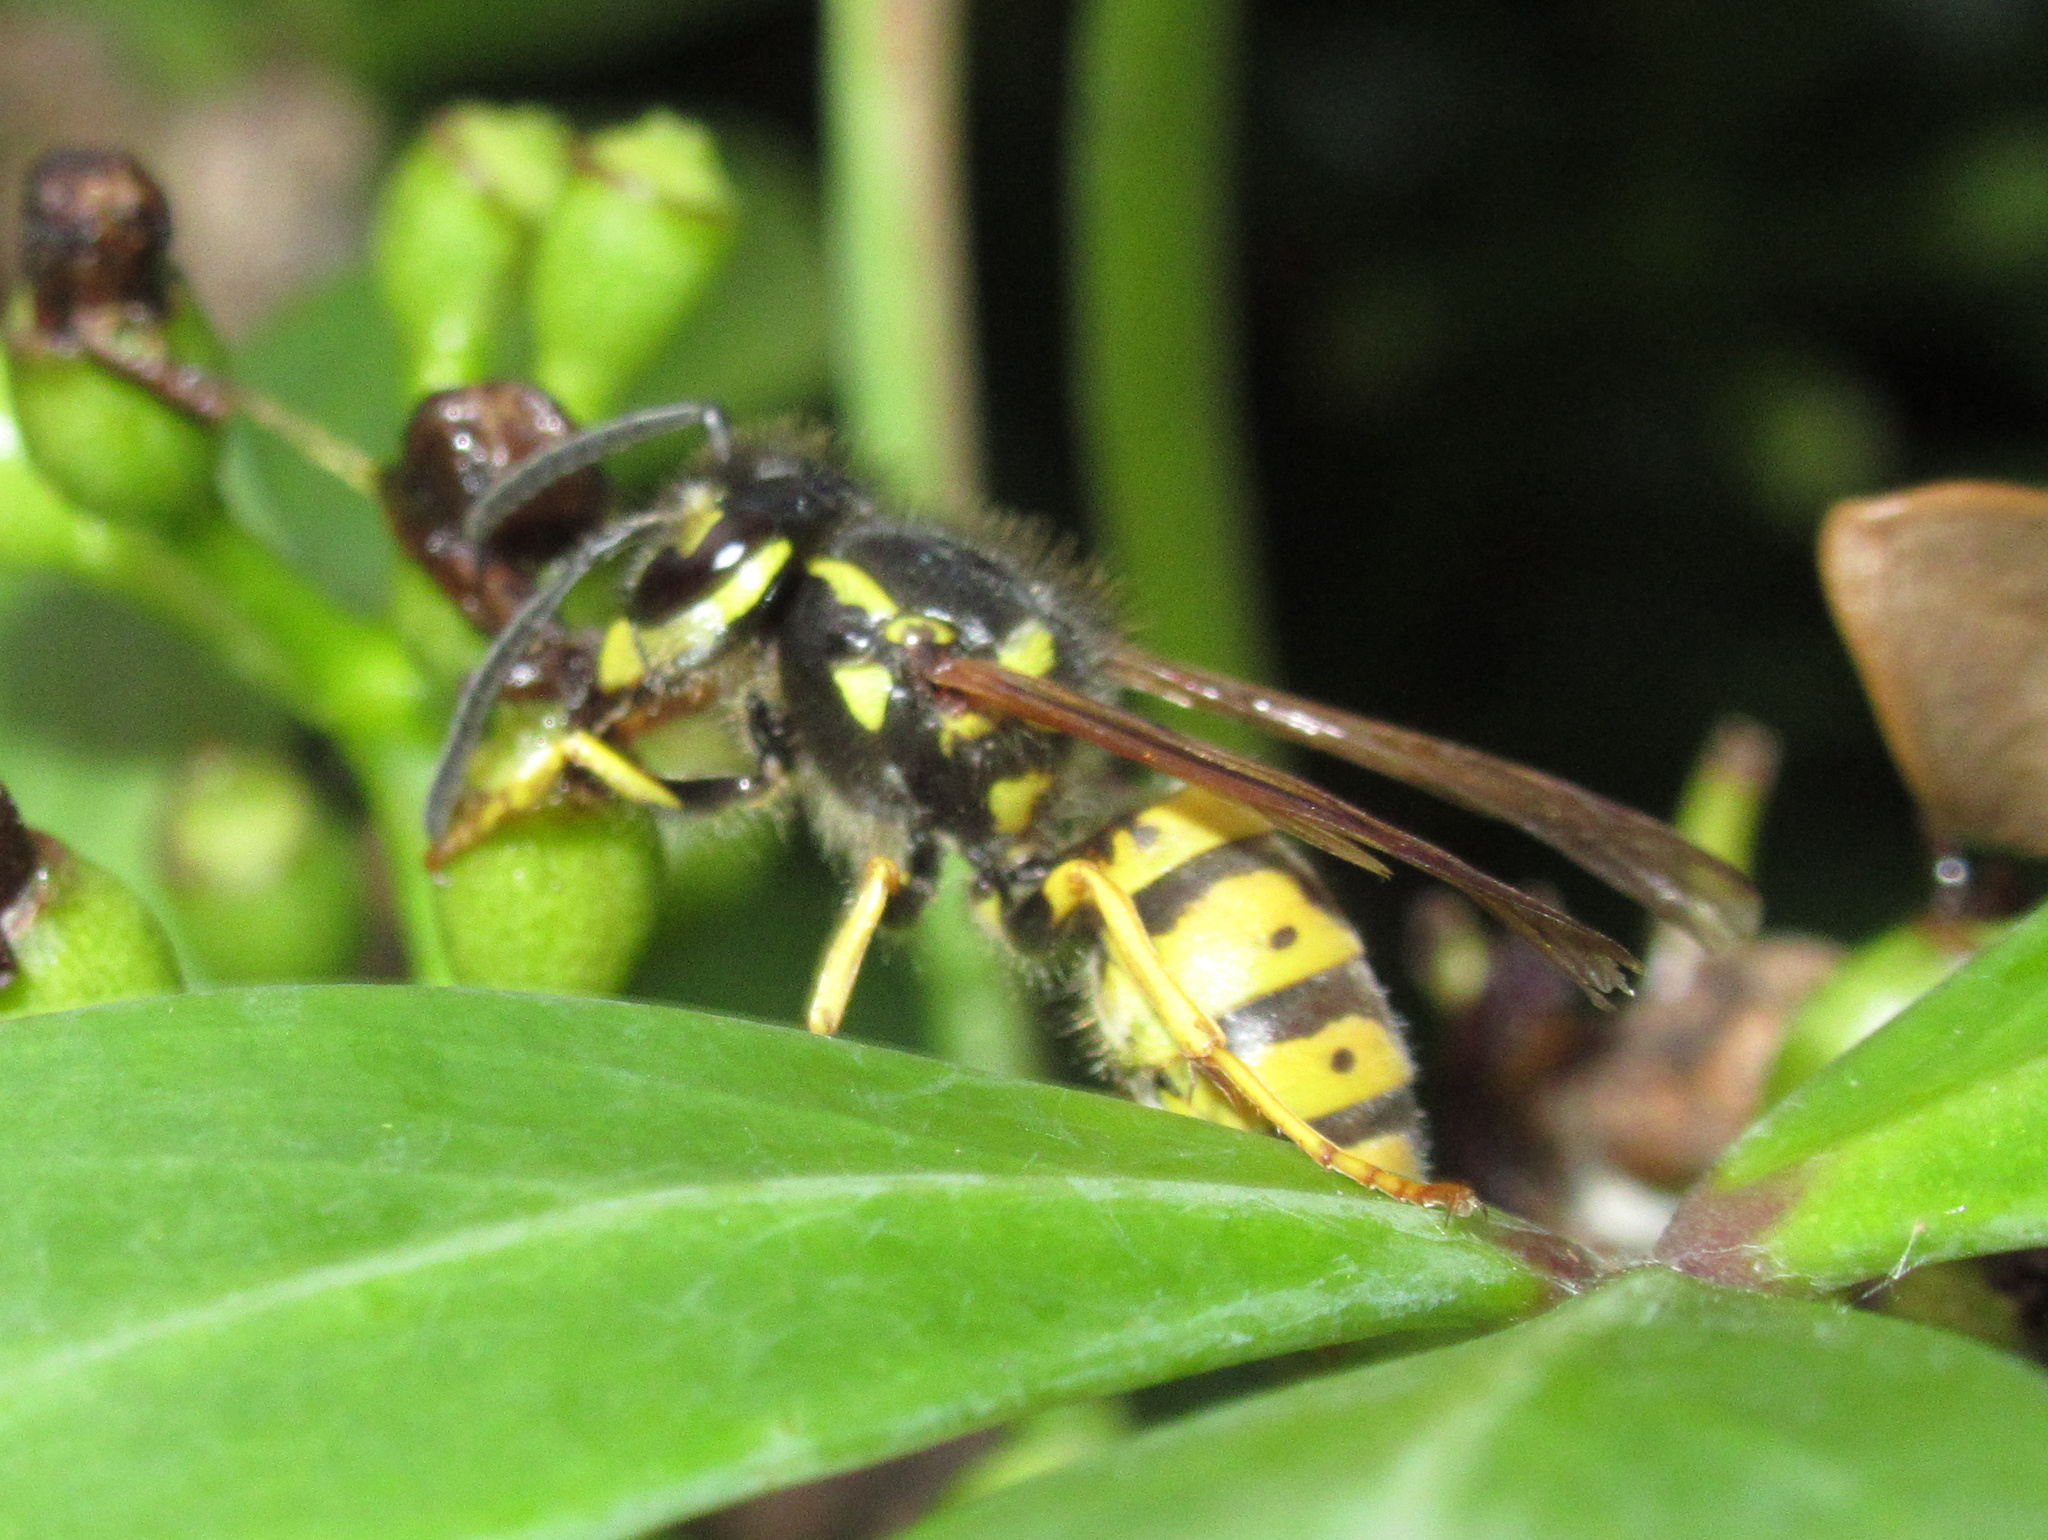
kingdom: Animalia
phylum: Arthropoda
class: Insecta
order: Hymenoptera
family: Vespidae
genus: Vespula
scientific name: Vespula germanica
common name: German wasp
